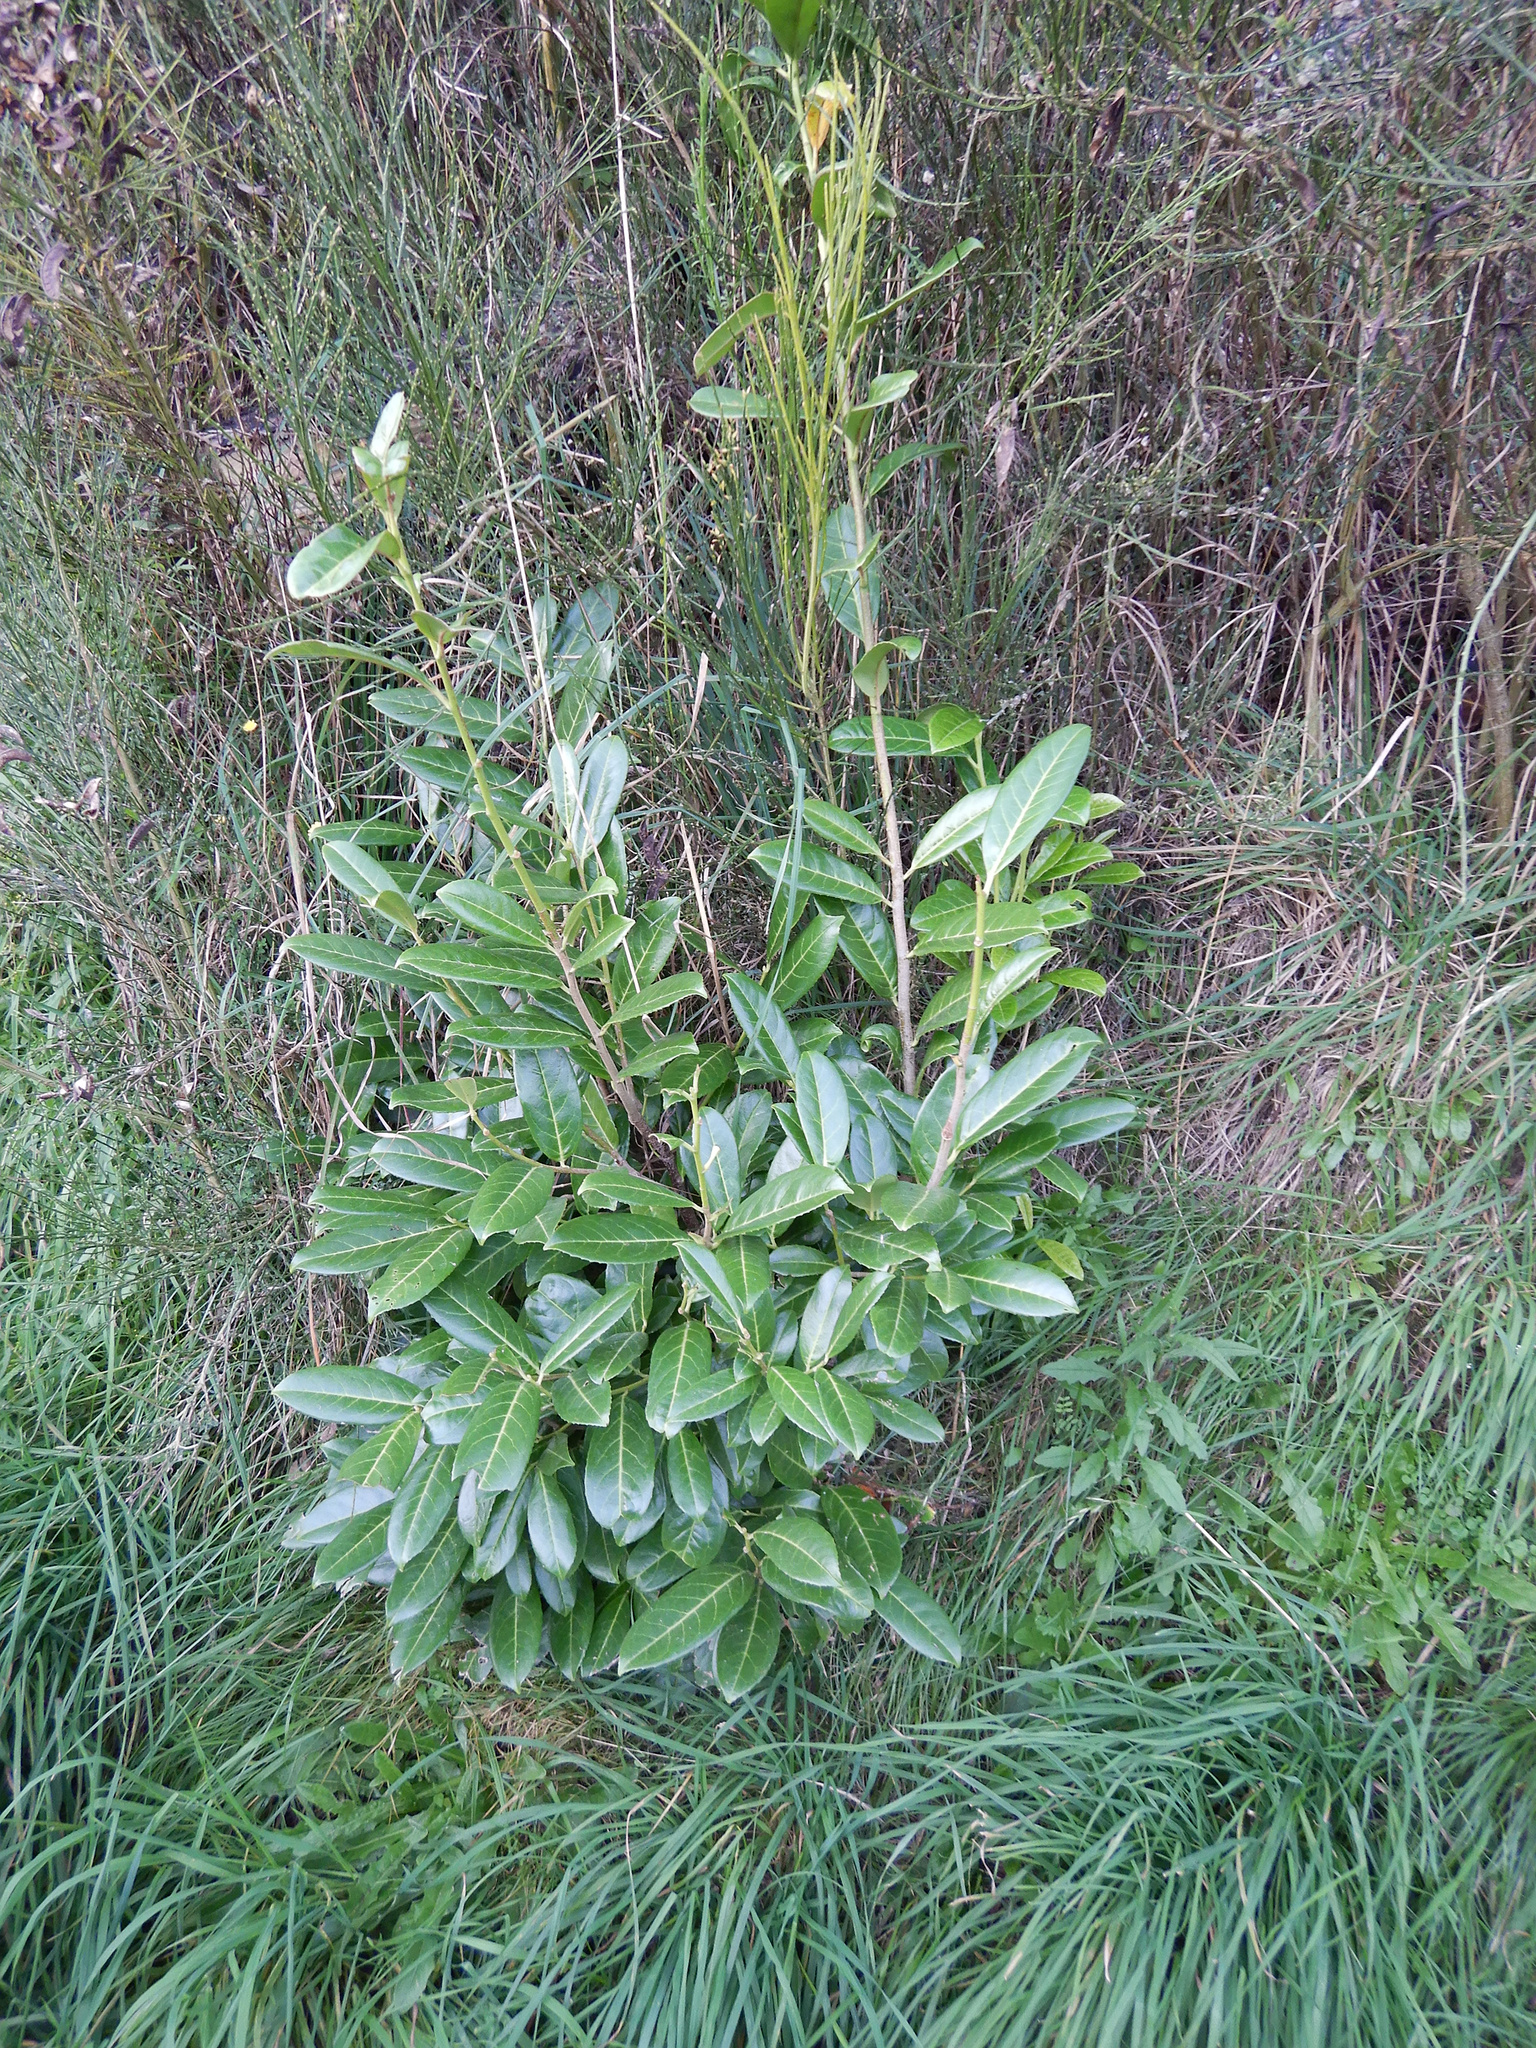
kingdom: Plantae
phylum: Tracheophyta
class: Magnoliopsida
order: Rosales
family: Rosaceae
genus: Prunus
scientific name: Prunus laurocerasus
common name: Cherry laurel
